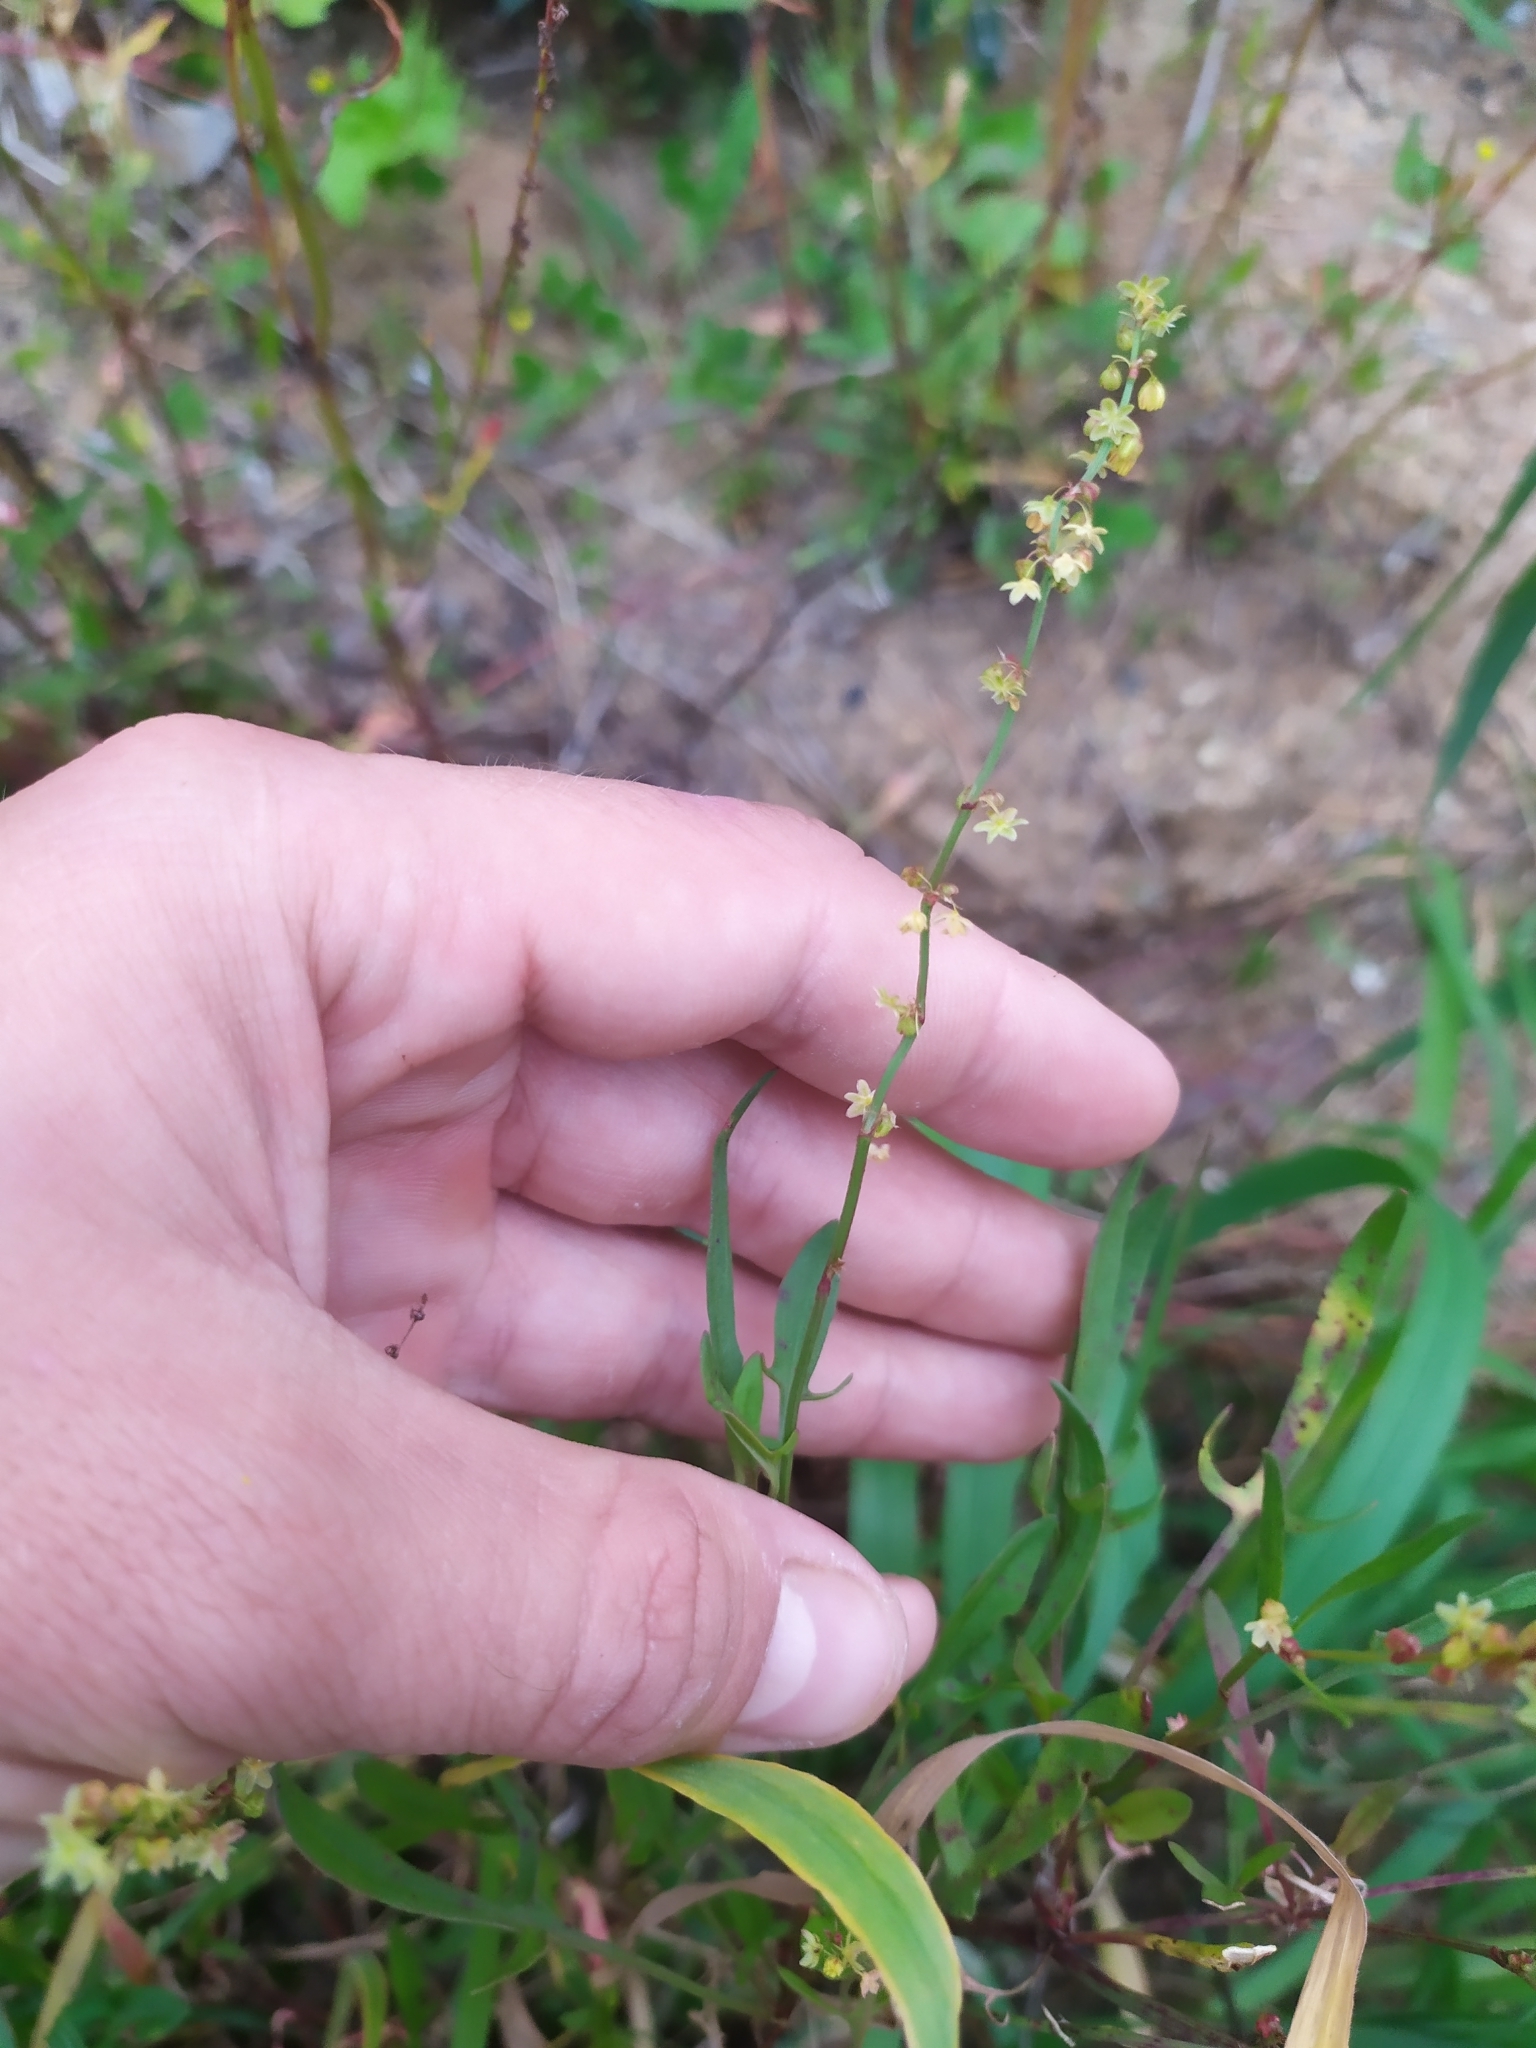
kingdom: Plantae
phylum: Tracheophyta
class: Magnoliopsida
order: Caryophyllales
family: Polygonaceae
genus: Rumex
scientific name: Rumex acetosella
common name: Common sheep sorrel
